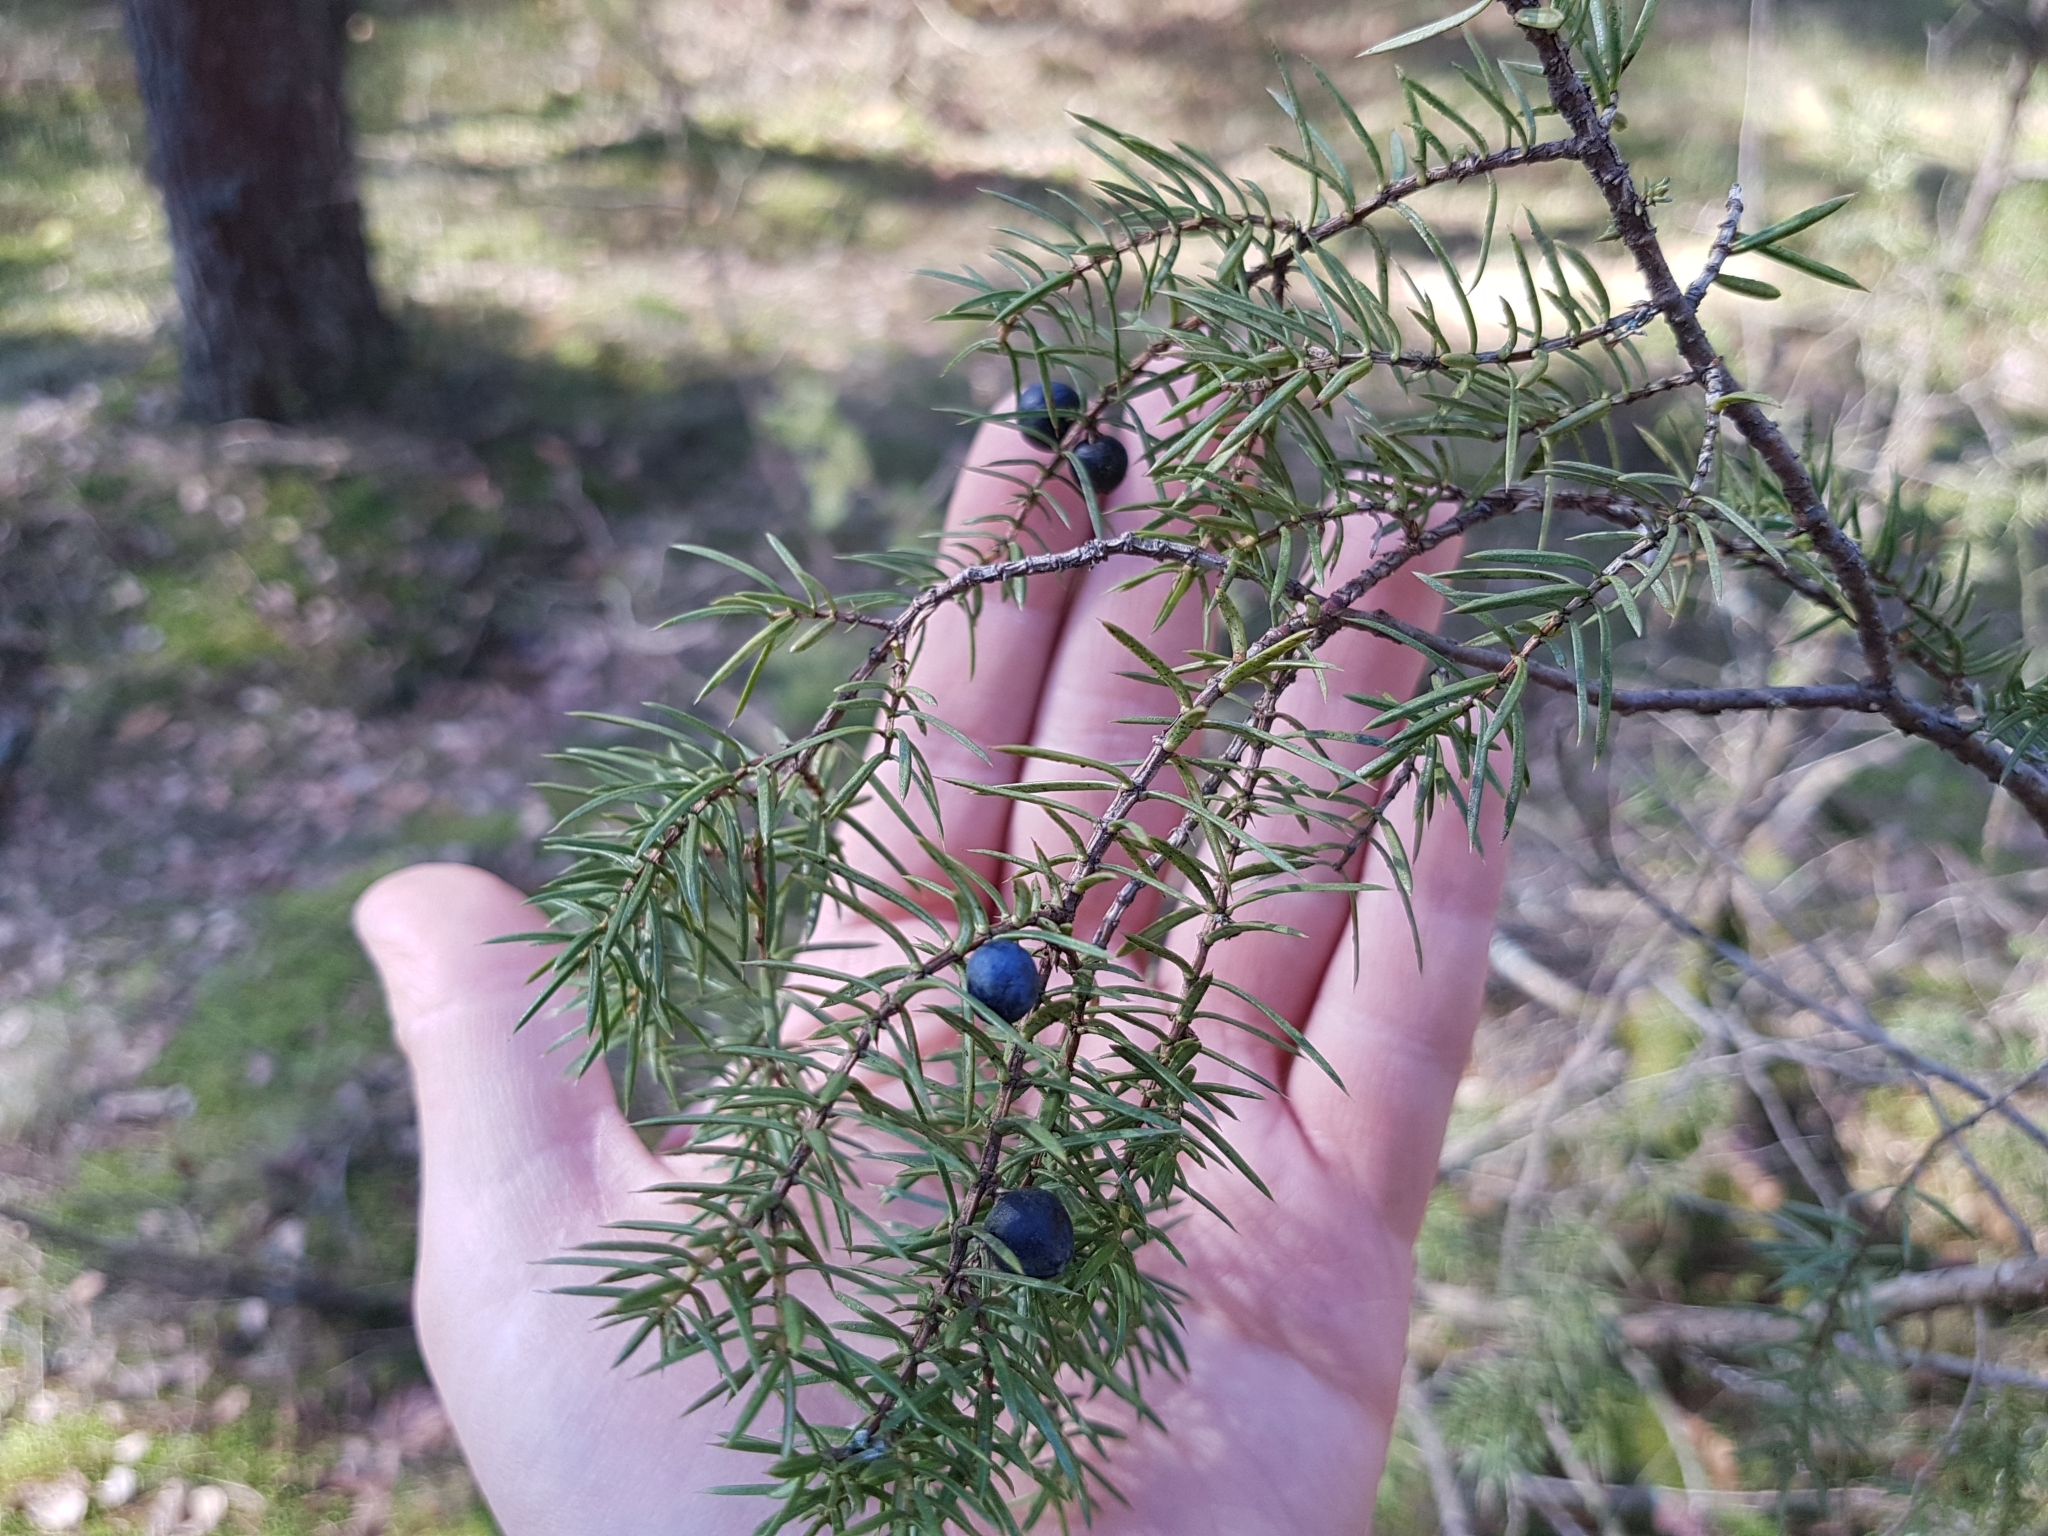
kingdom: Plantae
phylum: Tracheophyta
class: Pinopsida
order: Pinales
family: Cupressaceae
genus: Juniperus
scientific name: Juniperus communis
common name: Common juniper
